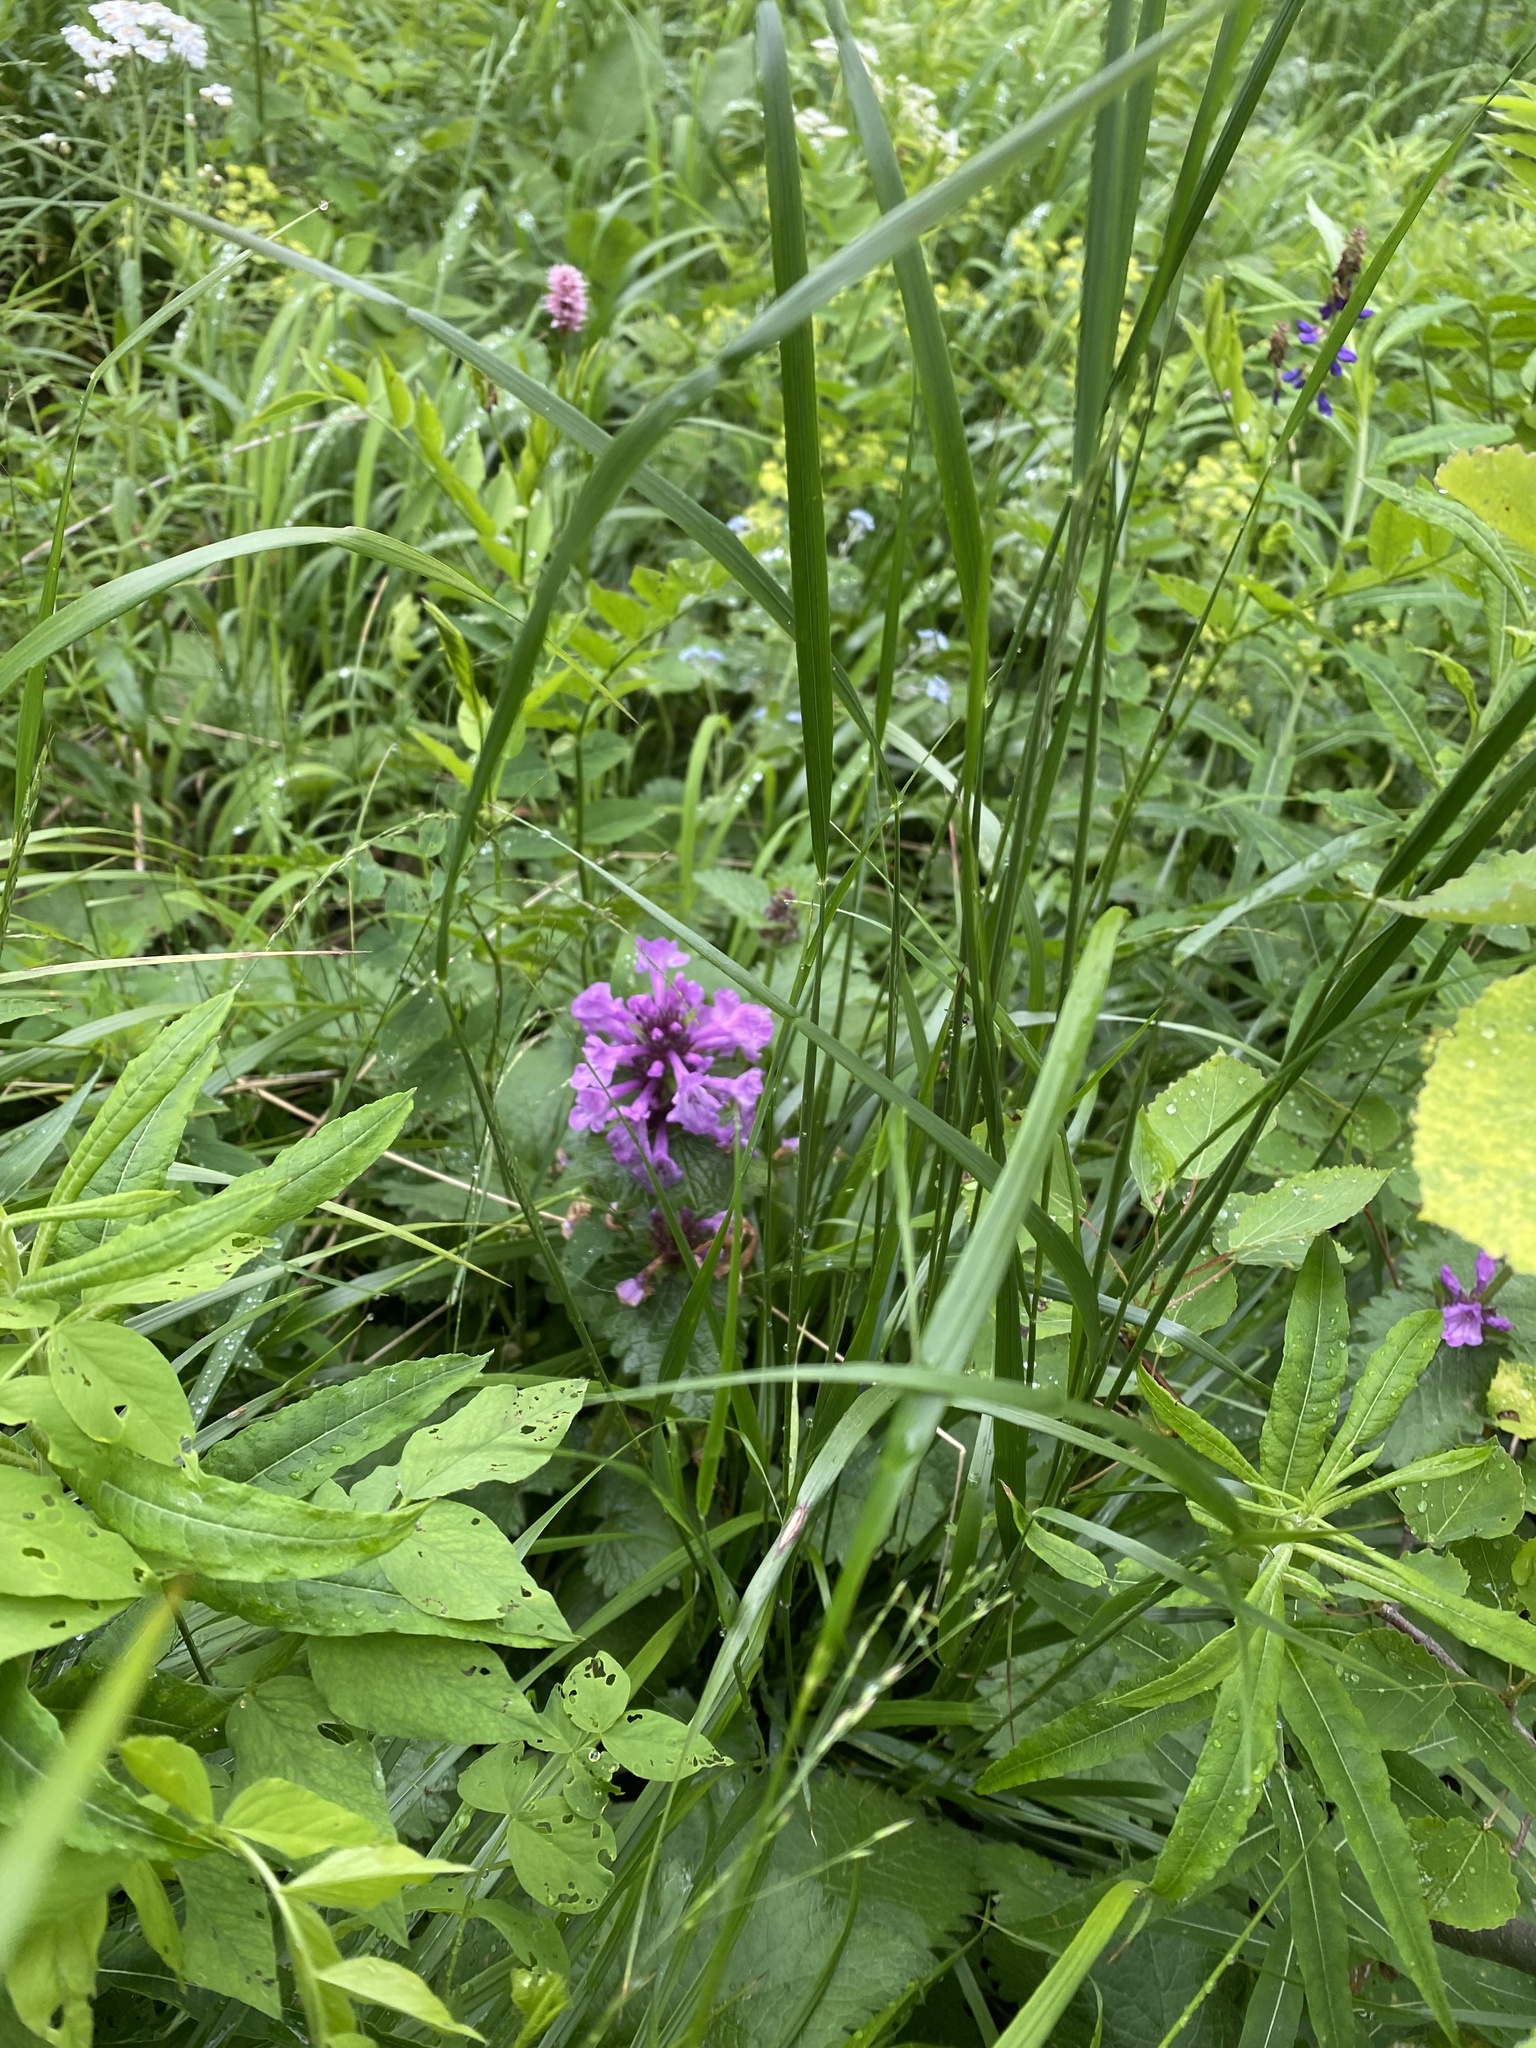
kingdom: Plantae
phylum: Tracheophyta
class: Magnoliopsida
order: Lamiales
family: Lamiaceae
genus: Betonica
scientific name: Betonica macrantha
